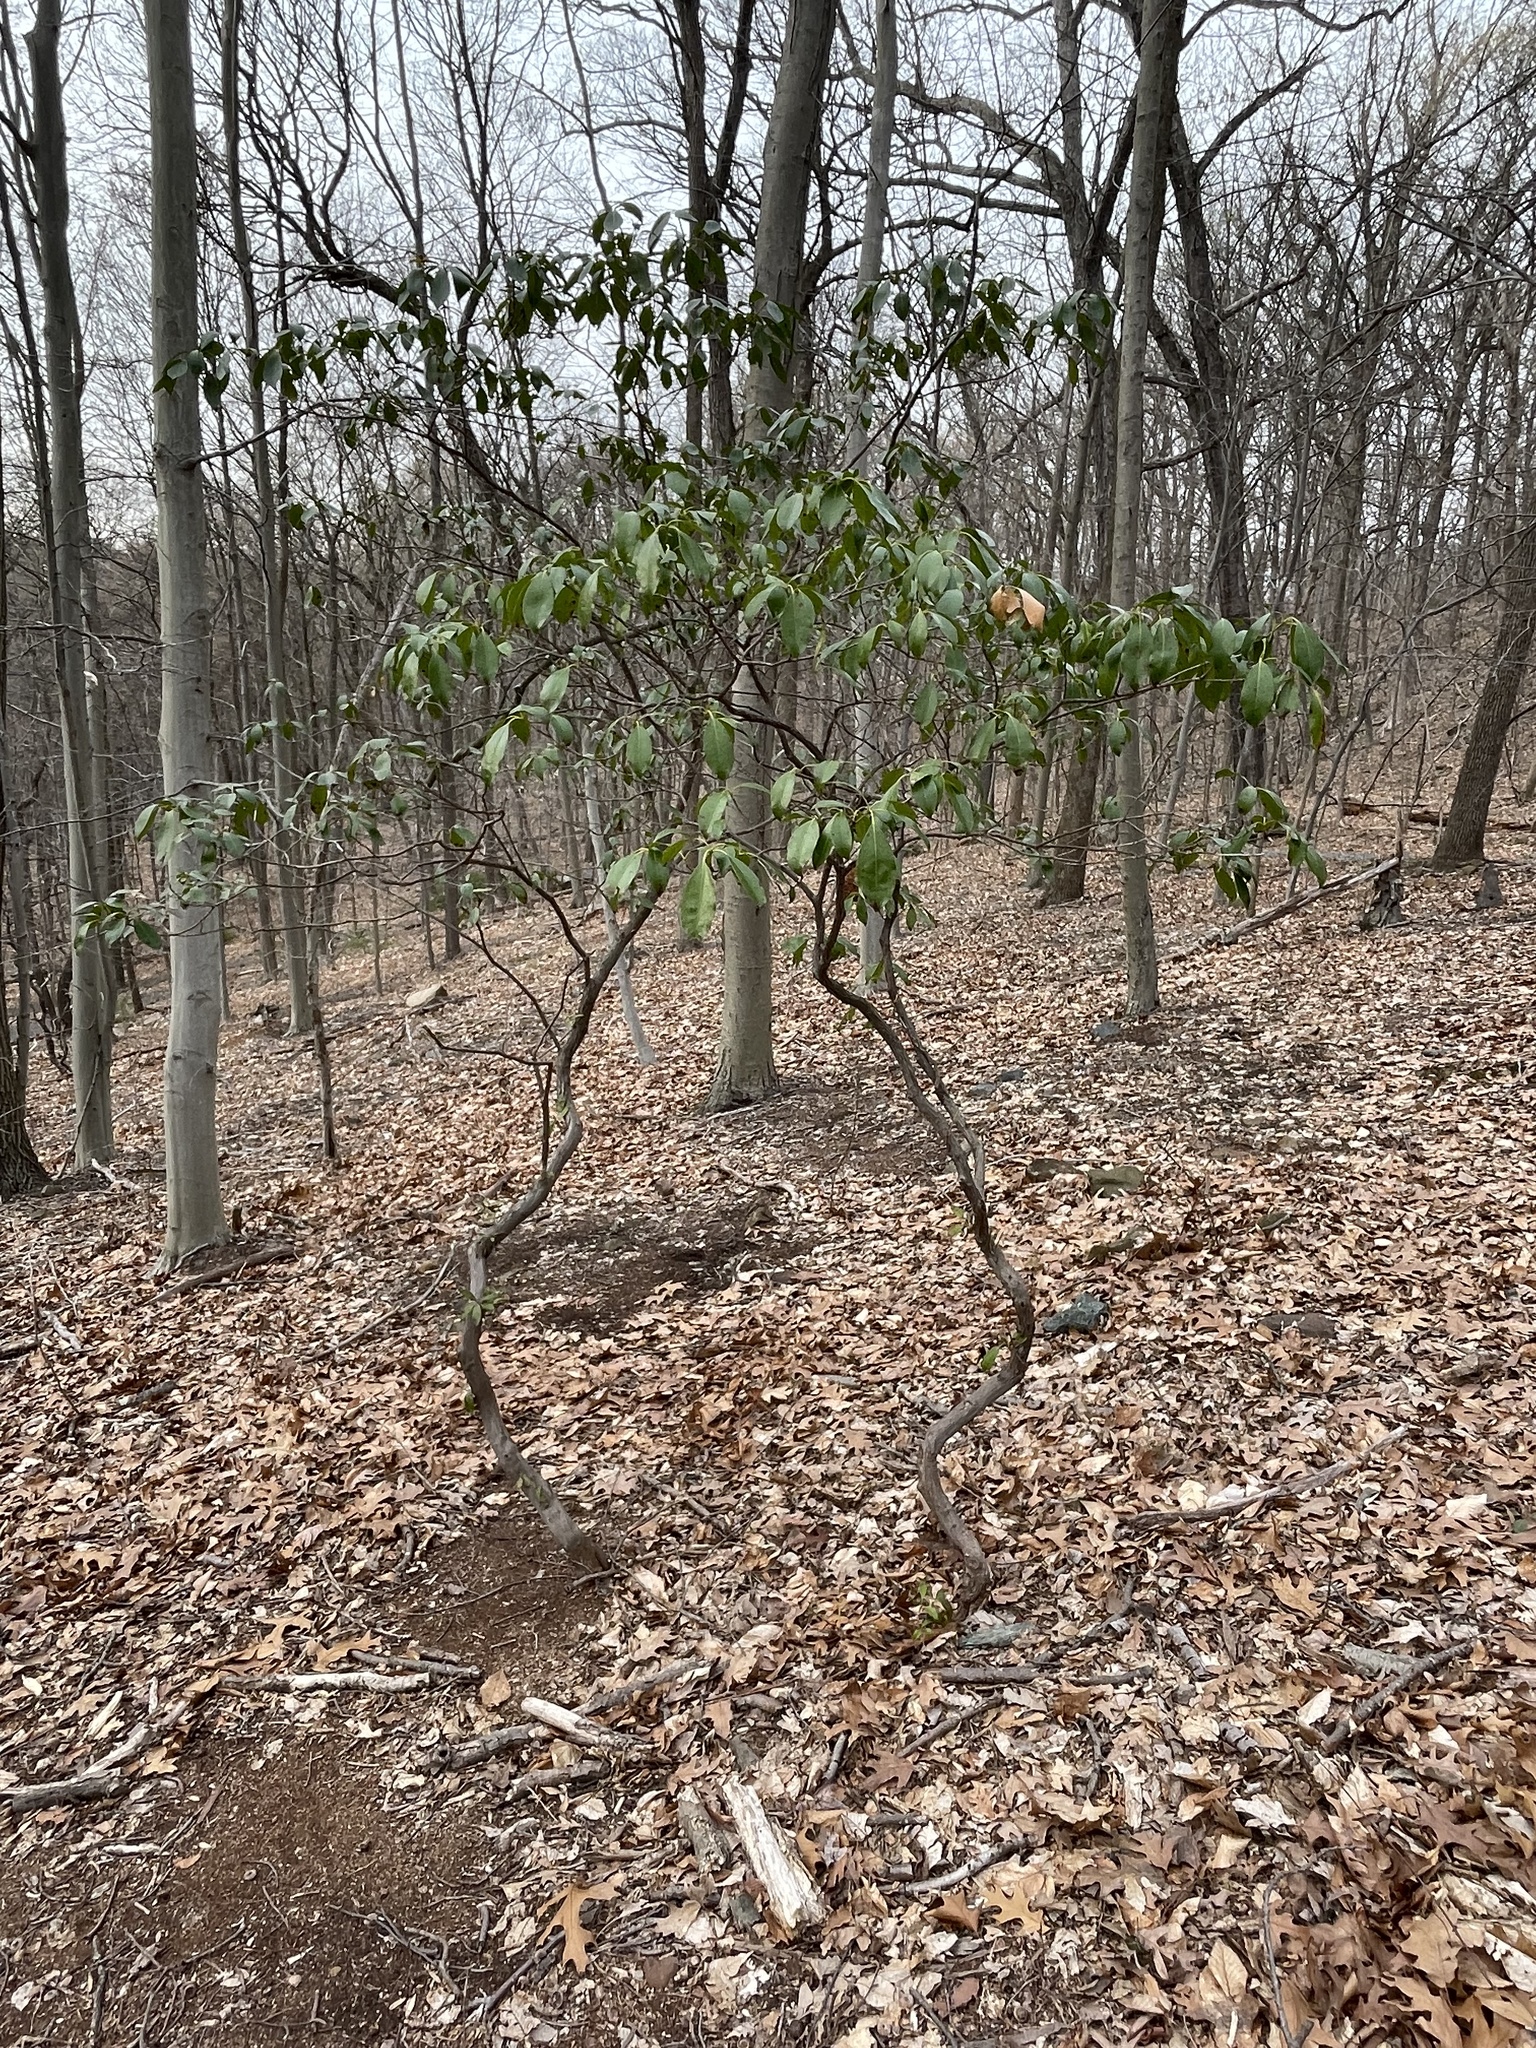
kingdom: Plantae
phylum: Tracheophyta
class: Magnoliopsida
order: Ericales
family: Ericaceae
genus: Kalmia
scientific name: Kalmia latifolia
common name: Mountain-laurel
